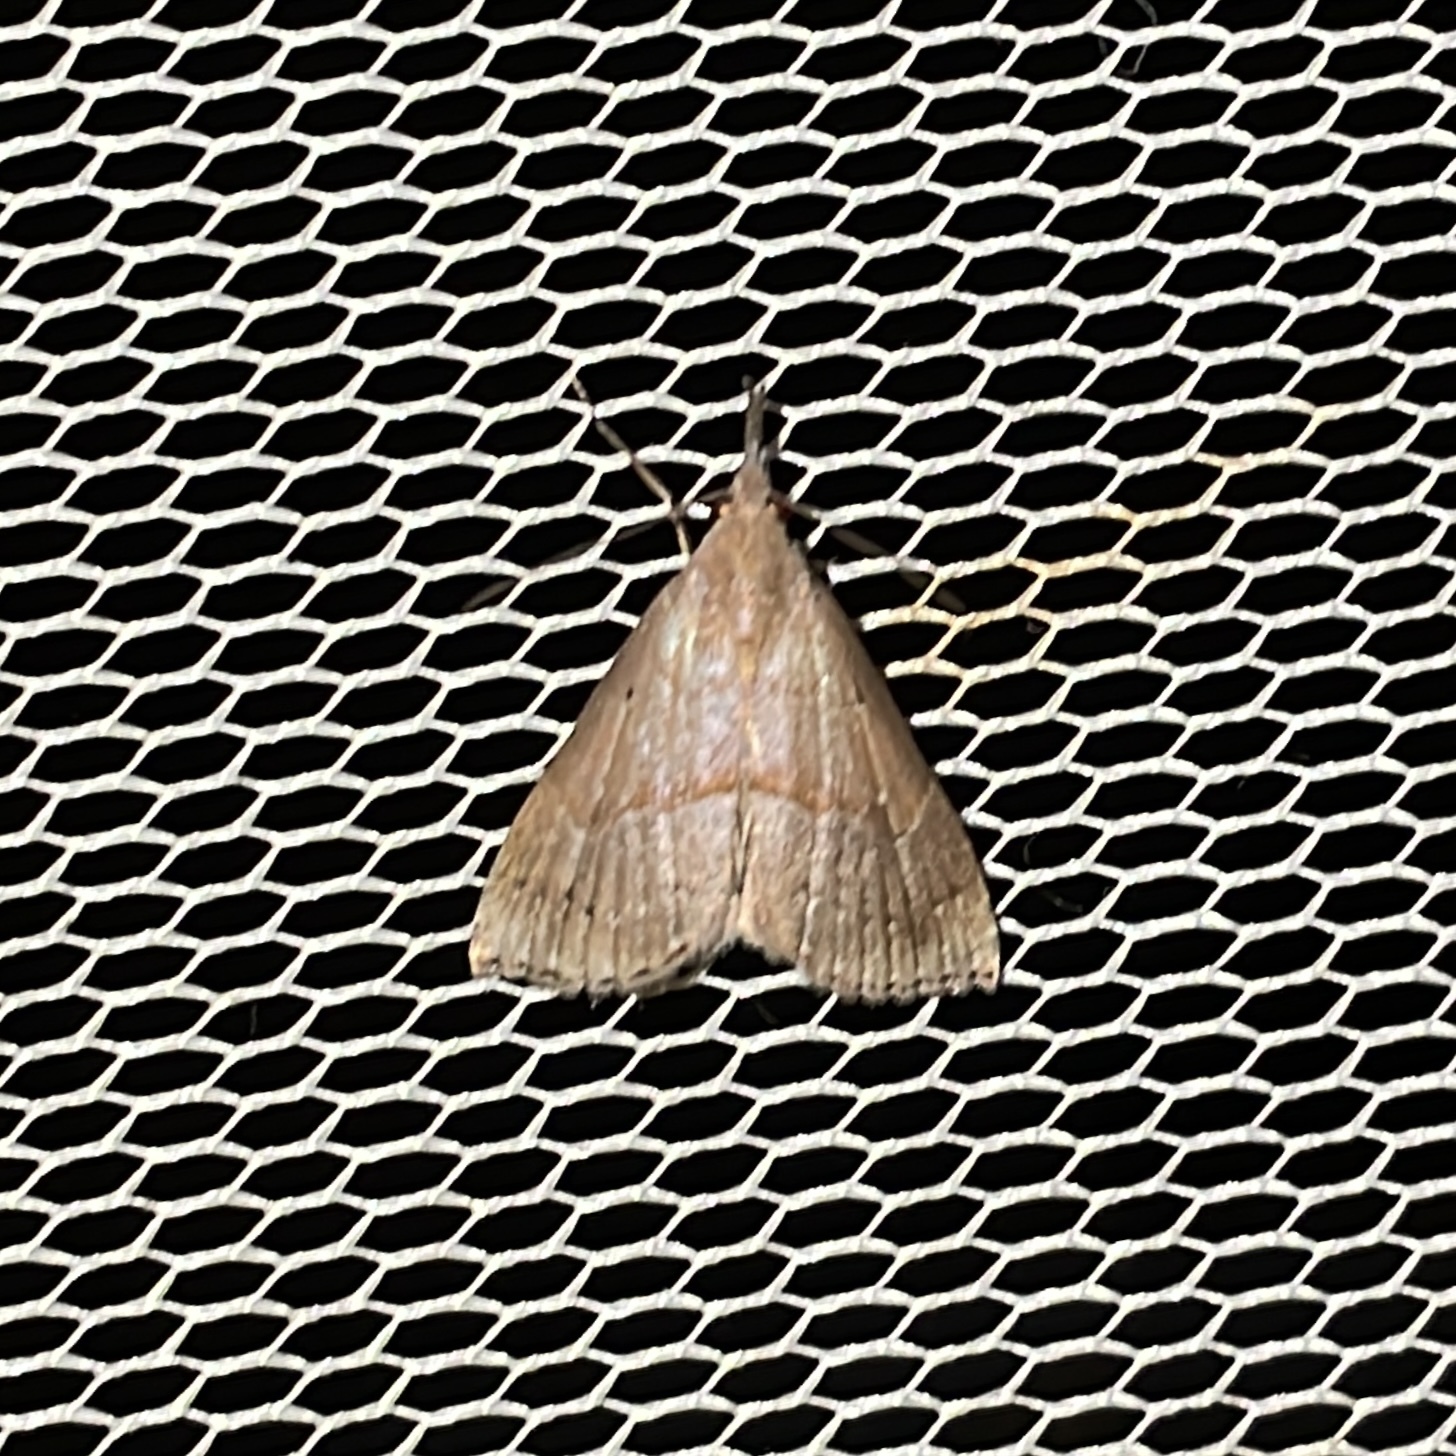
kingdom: Animalia
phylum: Arthropoda
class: Insecta
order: Lepidoptera
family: Erebidae
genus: Hypena
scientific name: Hypena porrectalis
